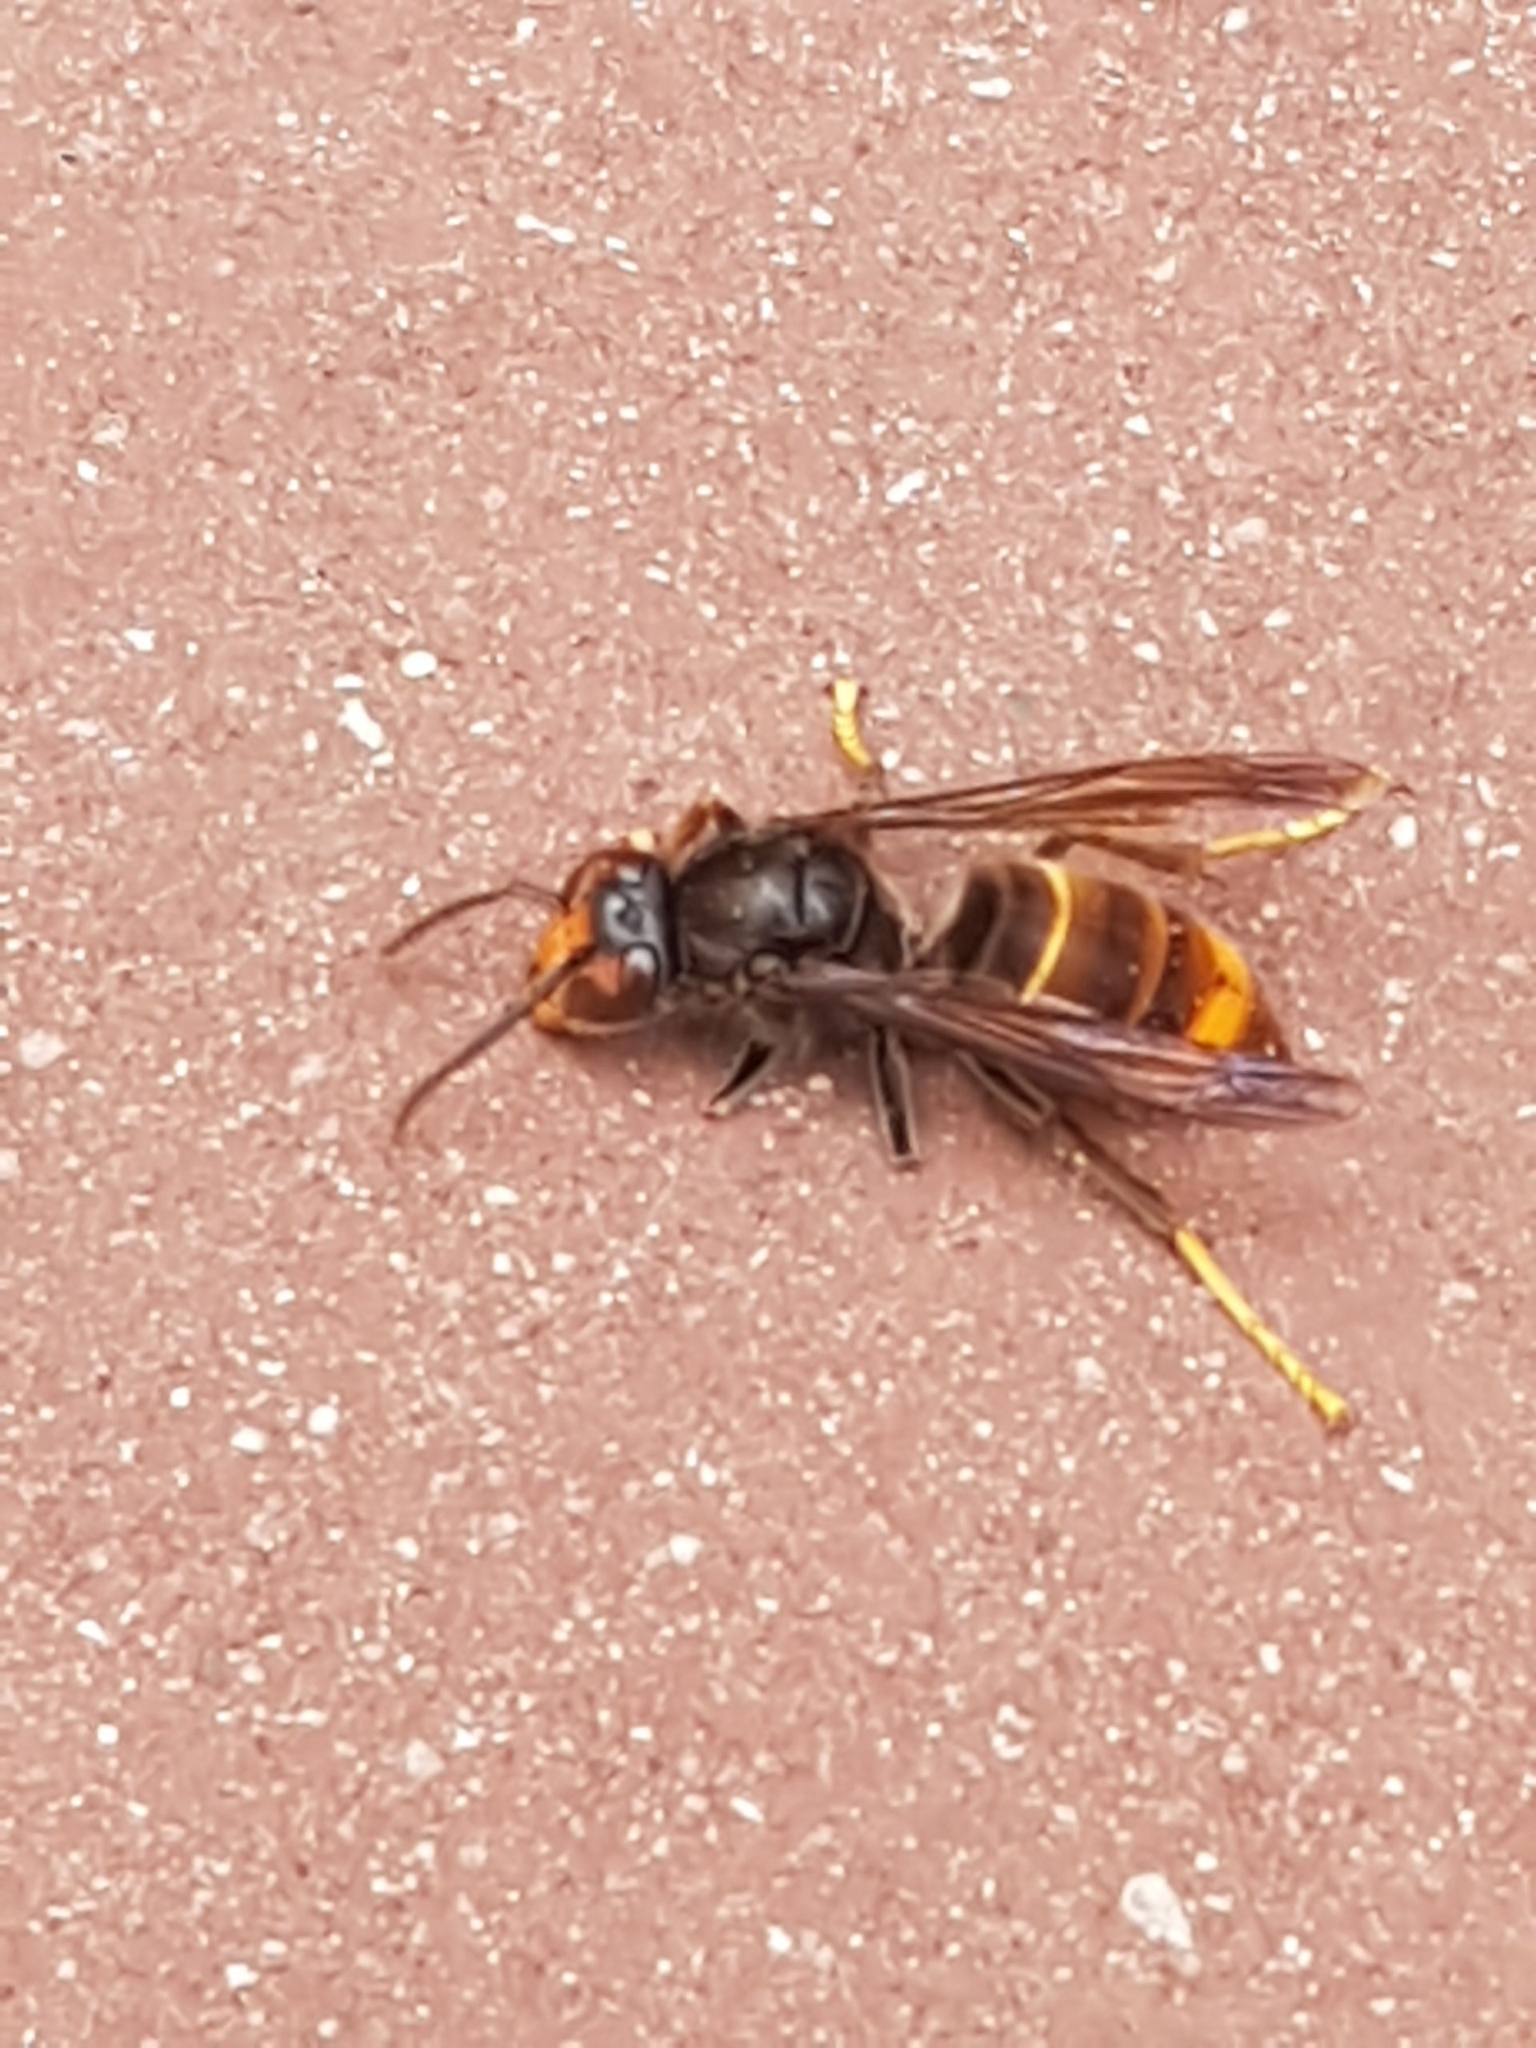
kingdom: Animalia
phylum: Arthropoda
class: Insecta
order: Hymenoptera
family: Vespidae
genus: Vespa
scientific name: Vespa velutina
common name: Asian hornet
